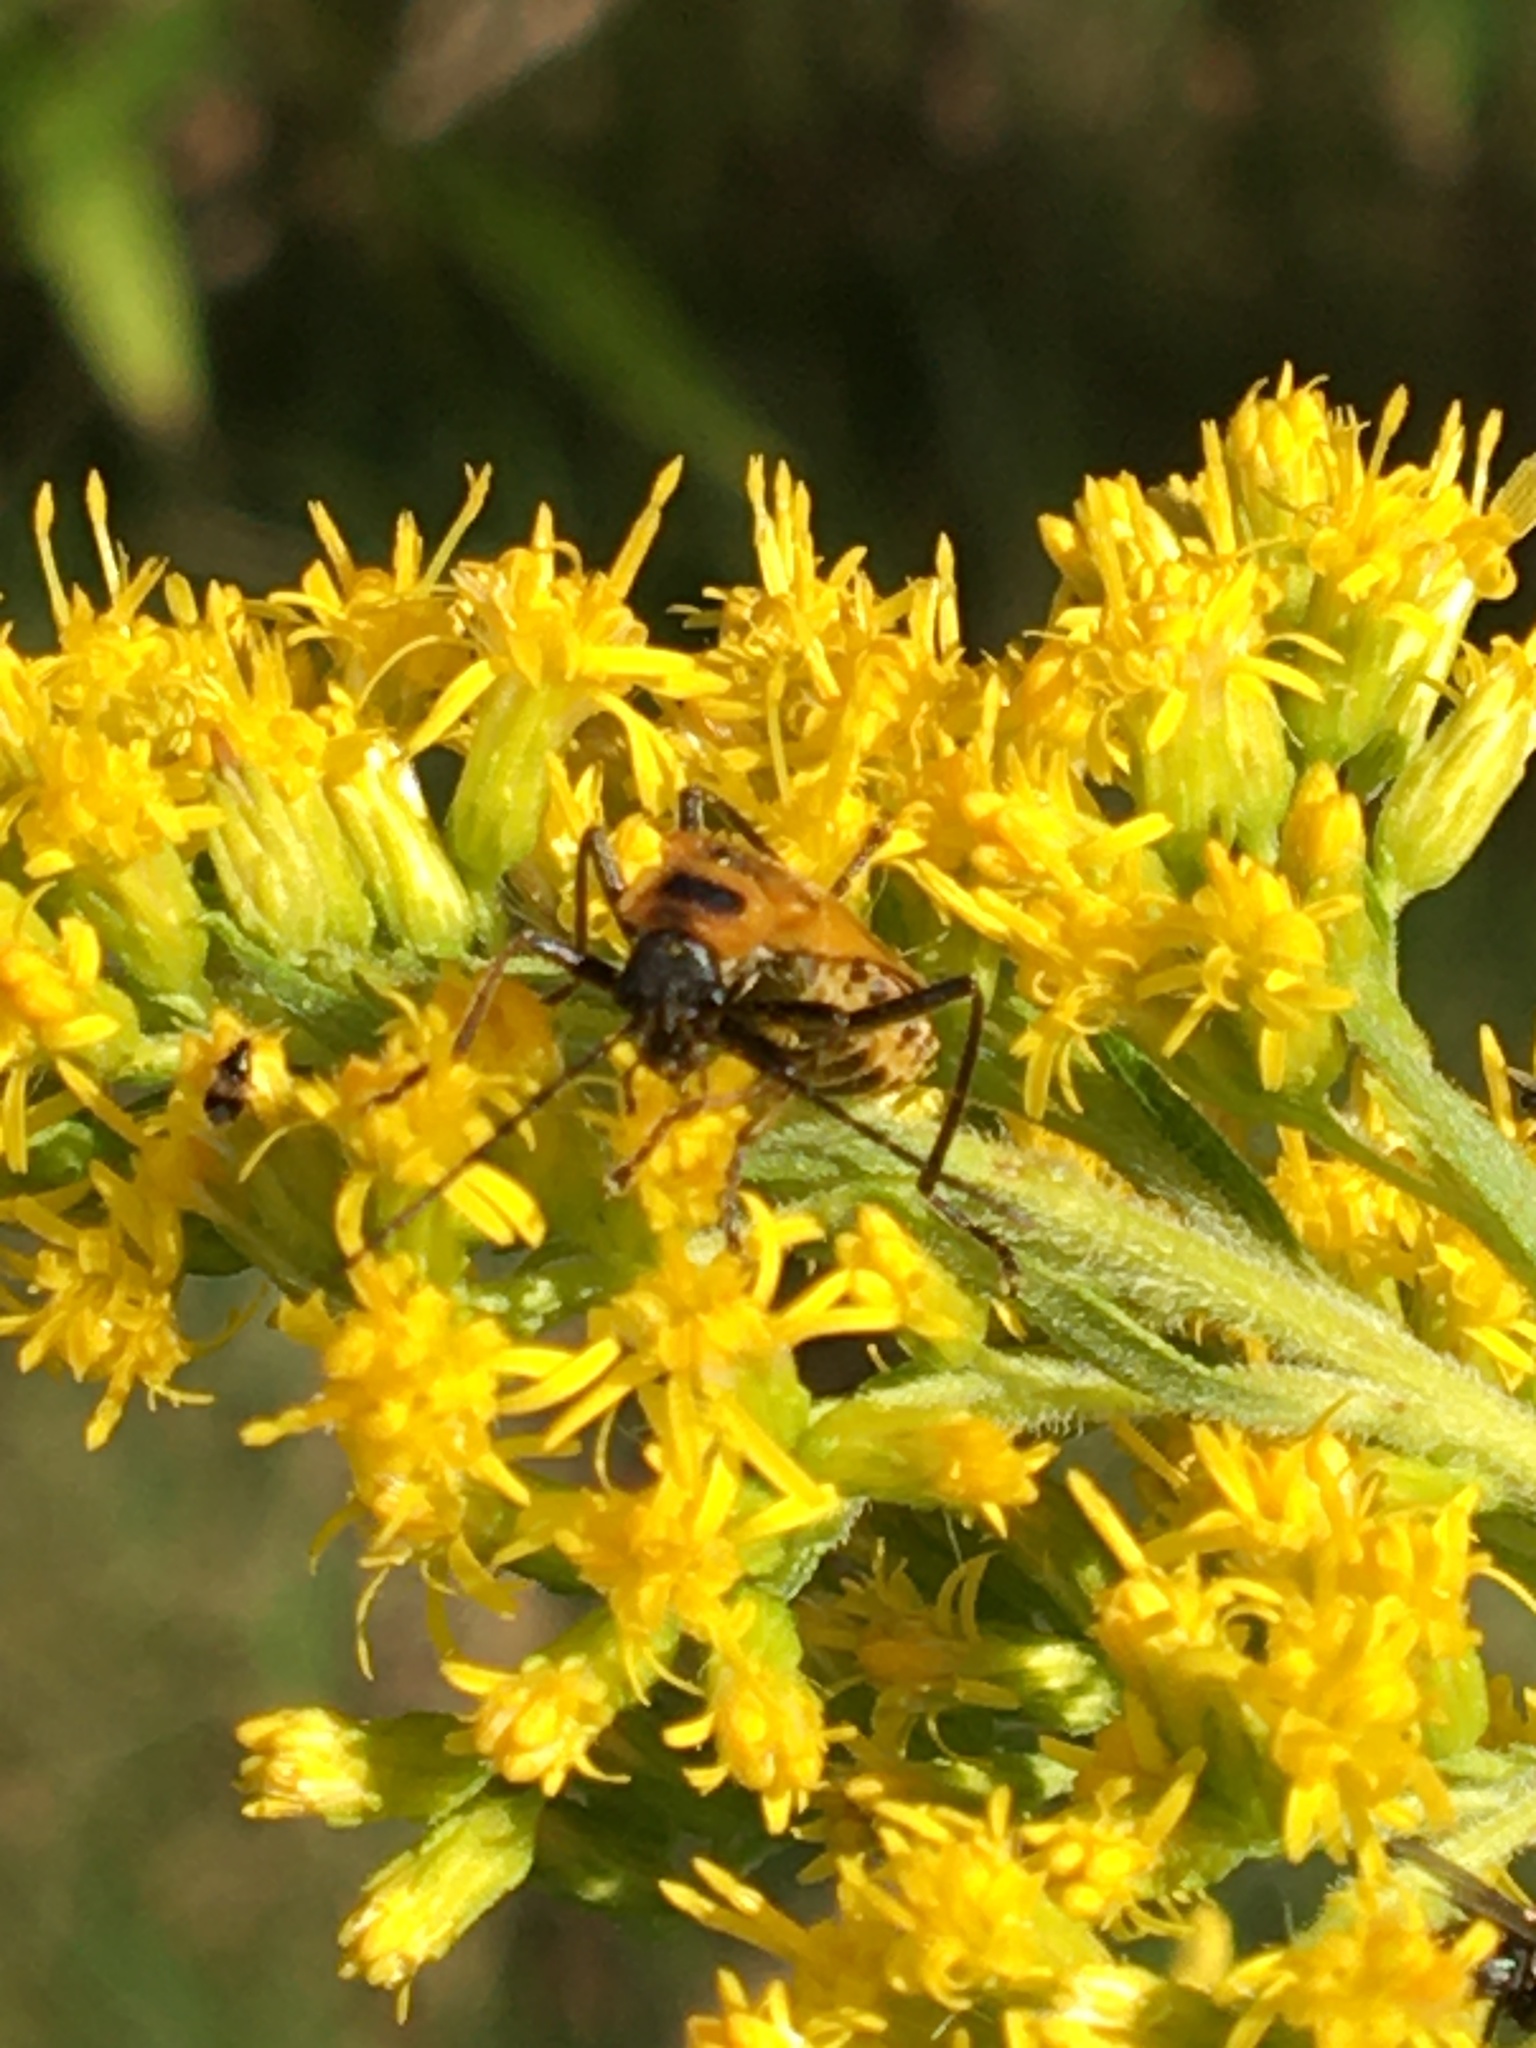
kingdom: Animalia
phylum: Arthropoda
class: Insecta
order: Coleoptera
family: Cantharidae
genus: Chauliognathus
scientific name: Chauliognathus pensylvanicus
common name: Goldenrod soldier beetle
